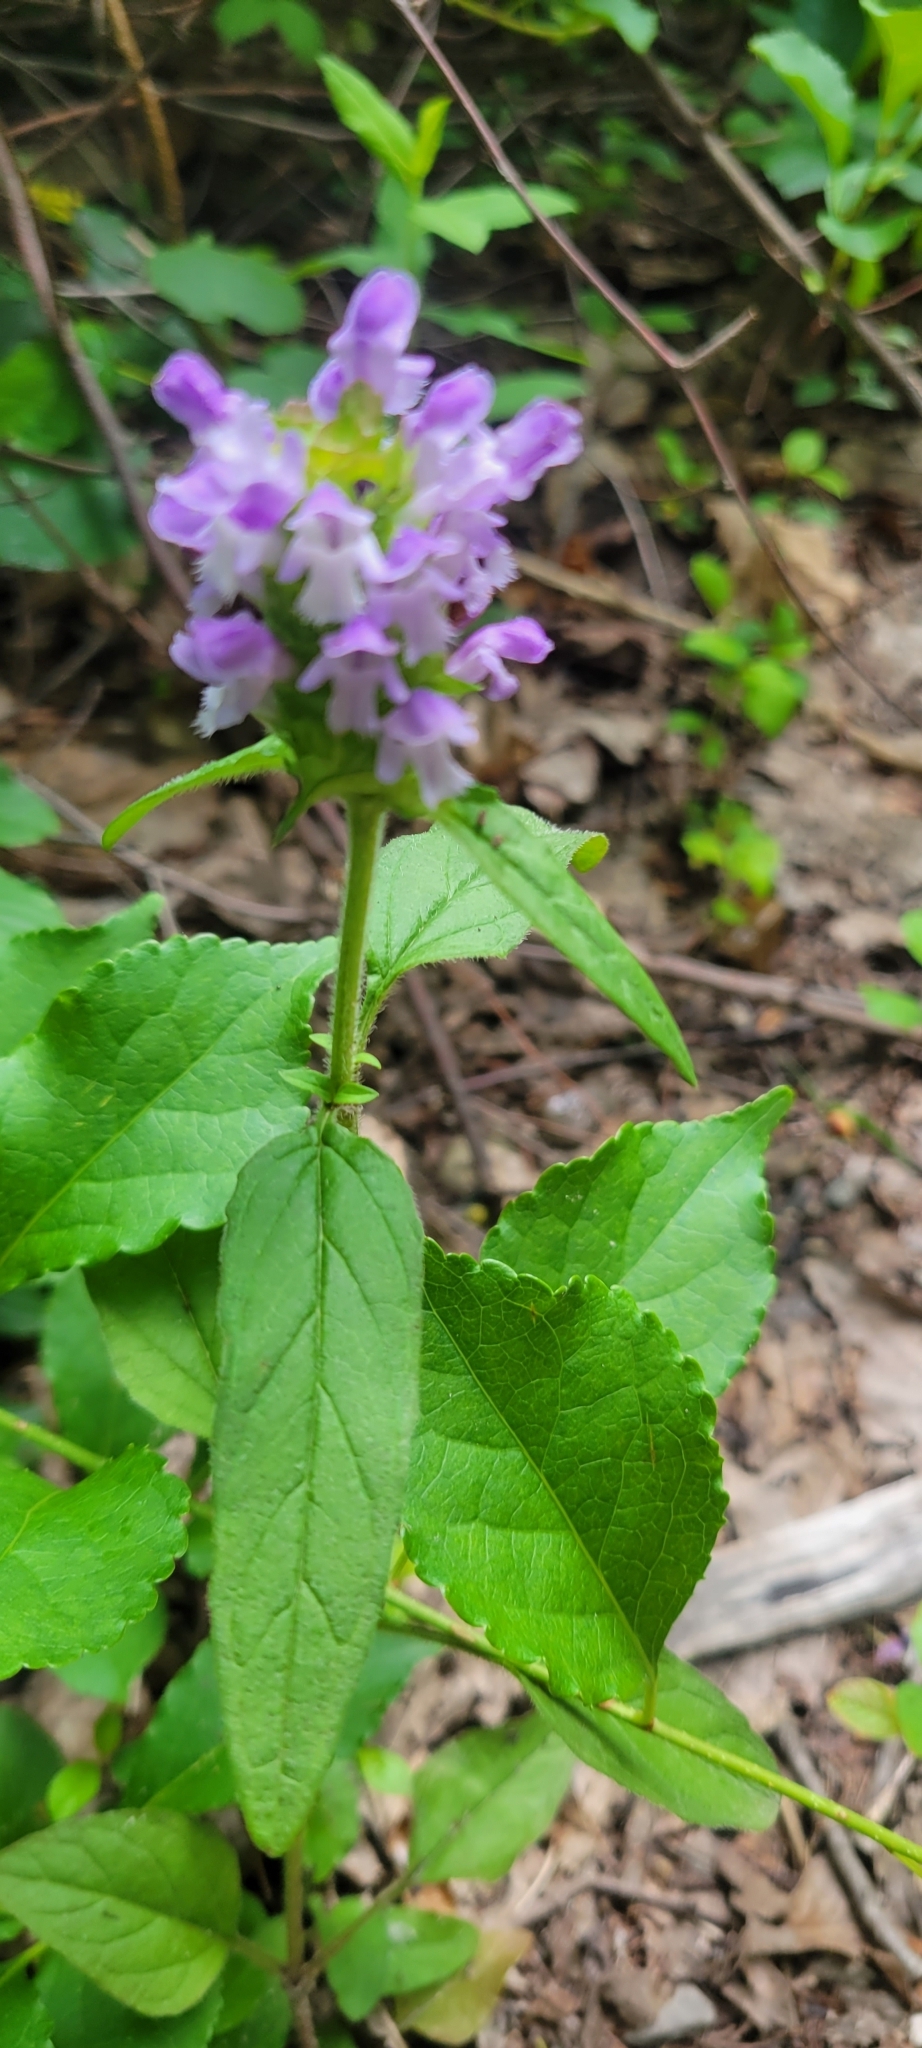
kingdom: Plantae
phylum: Tracheophyta
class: Magnoliopsida
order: Lamiales
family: Lamiaceae
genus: Prunella
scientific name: Prunella vulgaris
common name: Heal-all
